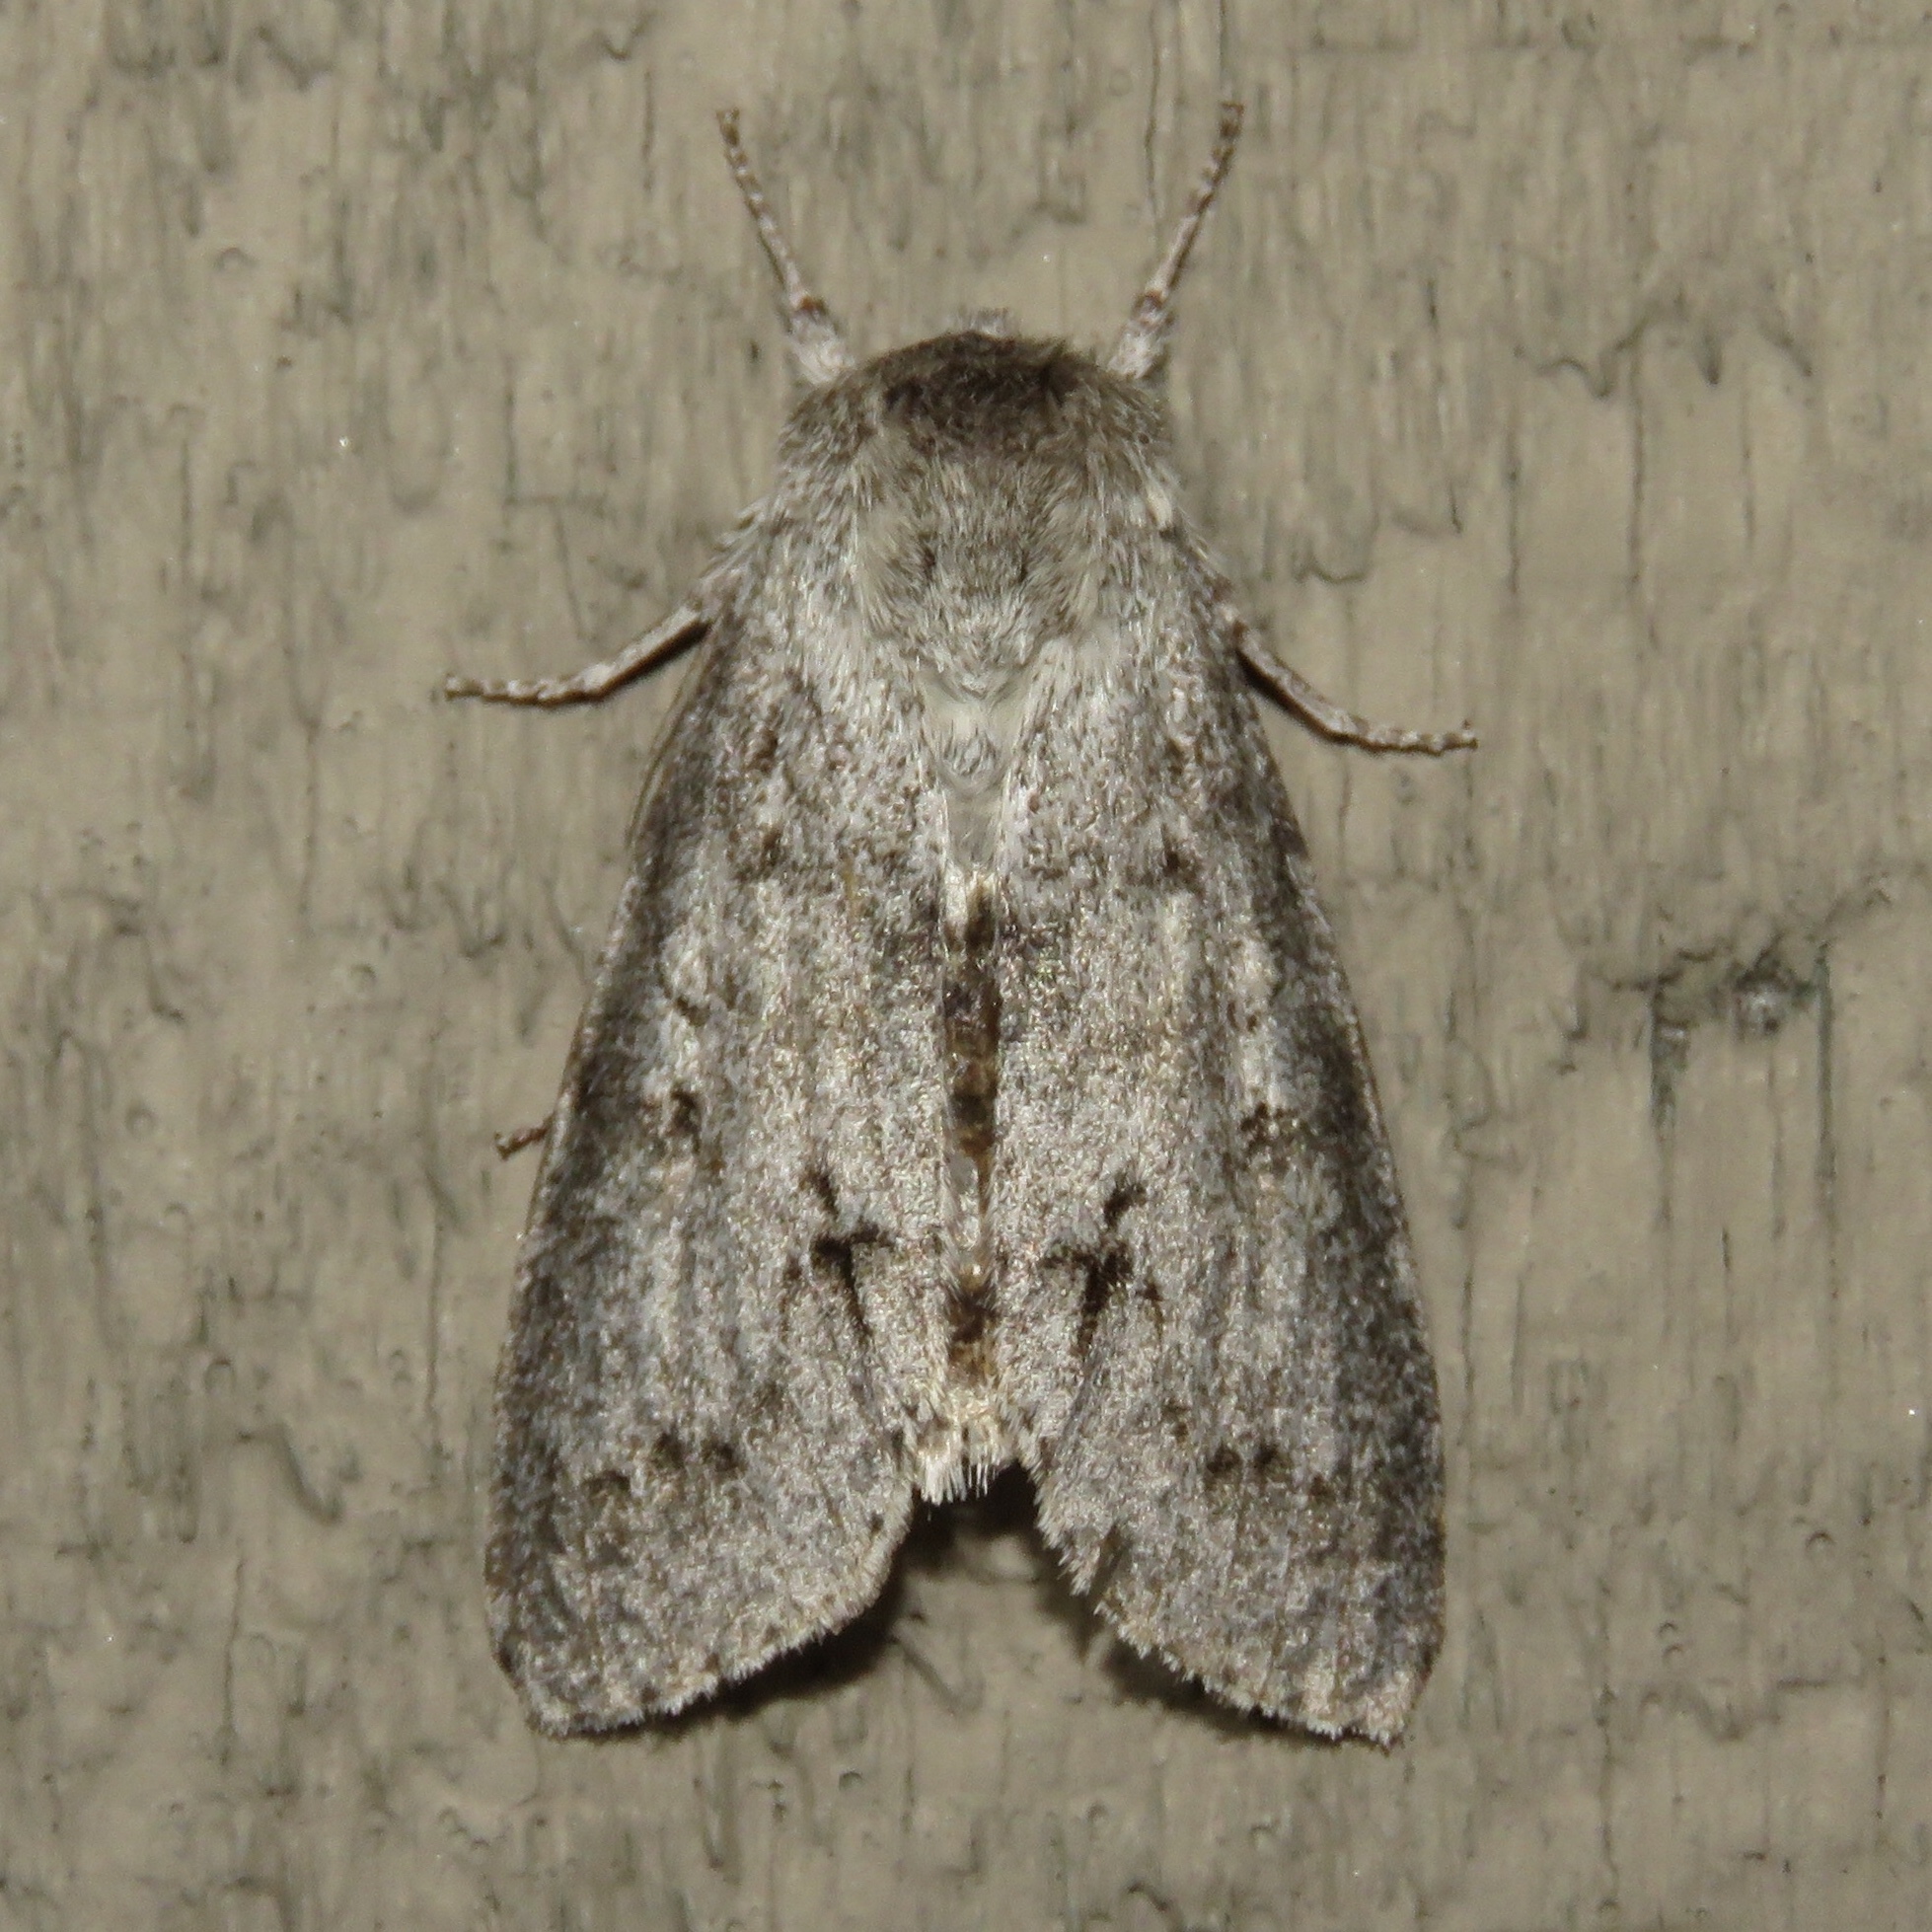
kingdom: Animalia
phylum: Arthropoda
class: Insecta
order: Lepidoptera
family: Noctuidae
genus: Acronicta
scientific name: Acronicta insita
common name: Large gray dagger
